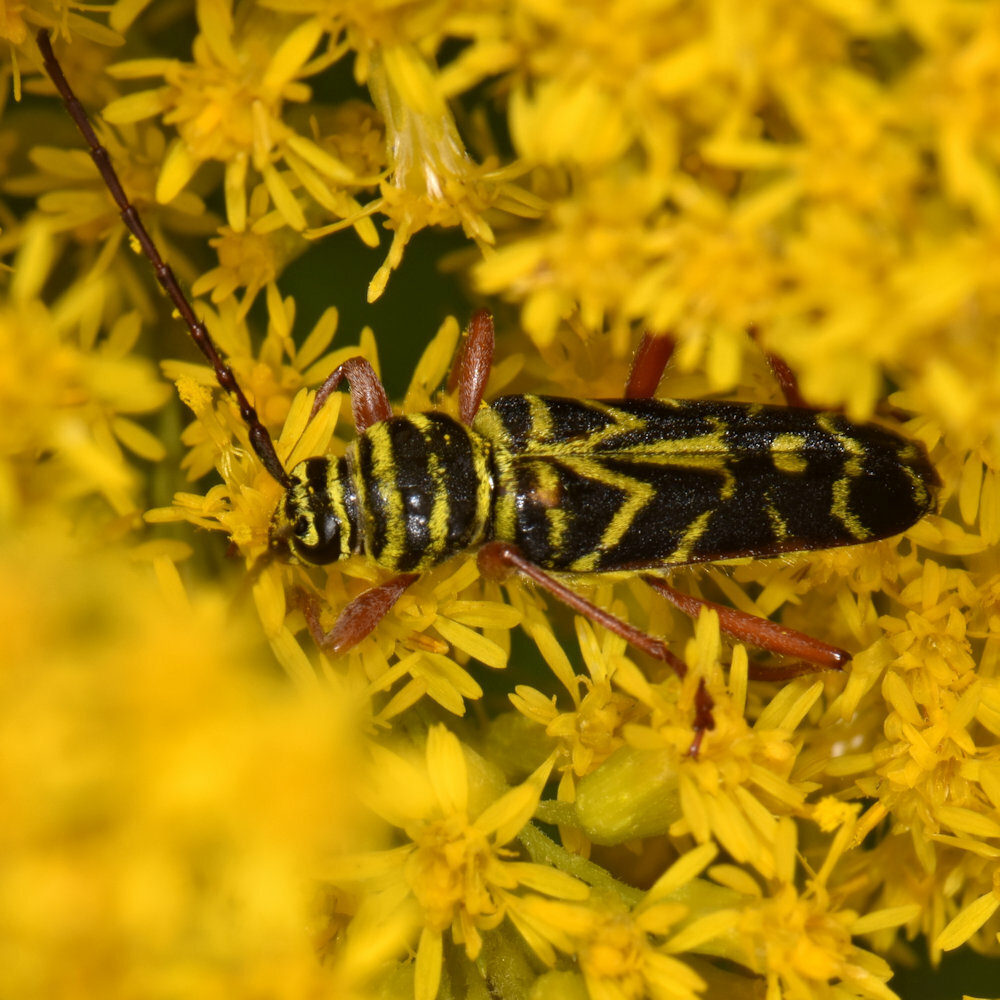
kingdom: Animalia
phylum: Arthropoda
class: Insecta
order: Coleoptera
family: Cerambycidae
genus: Megacyllene
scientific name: Megacyllene robiniae
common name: Locust borer
